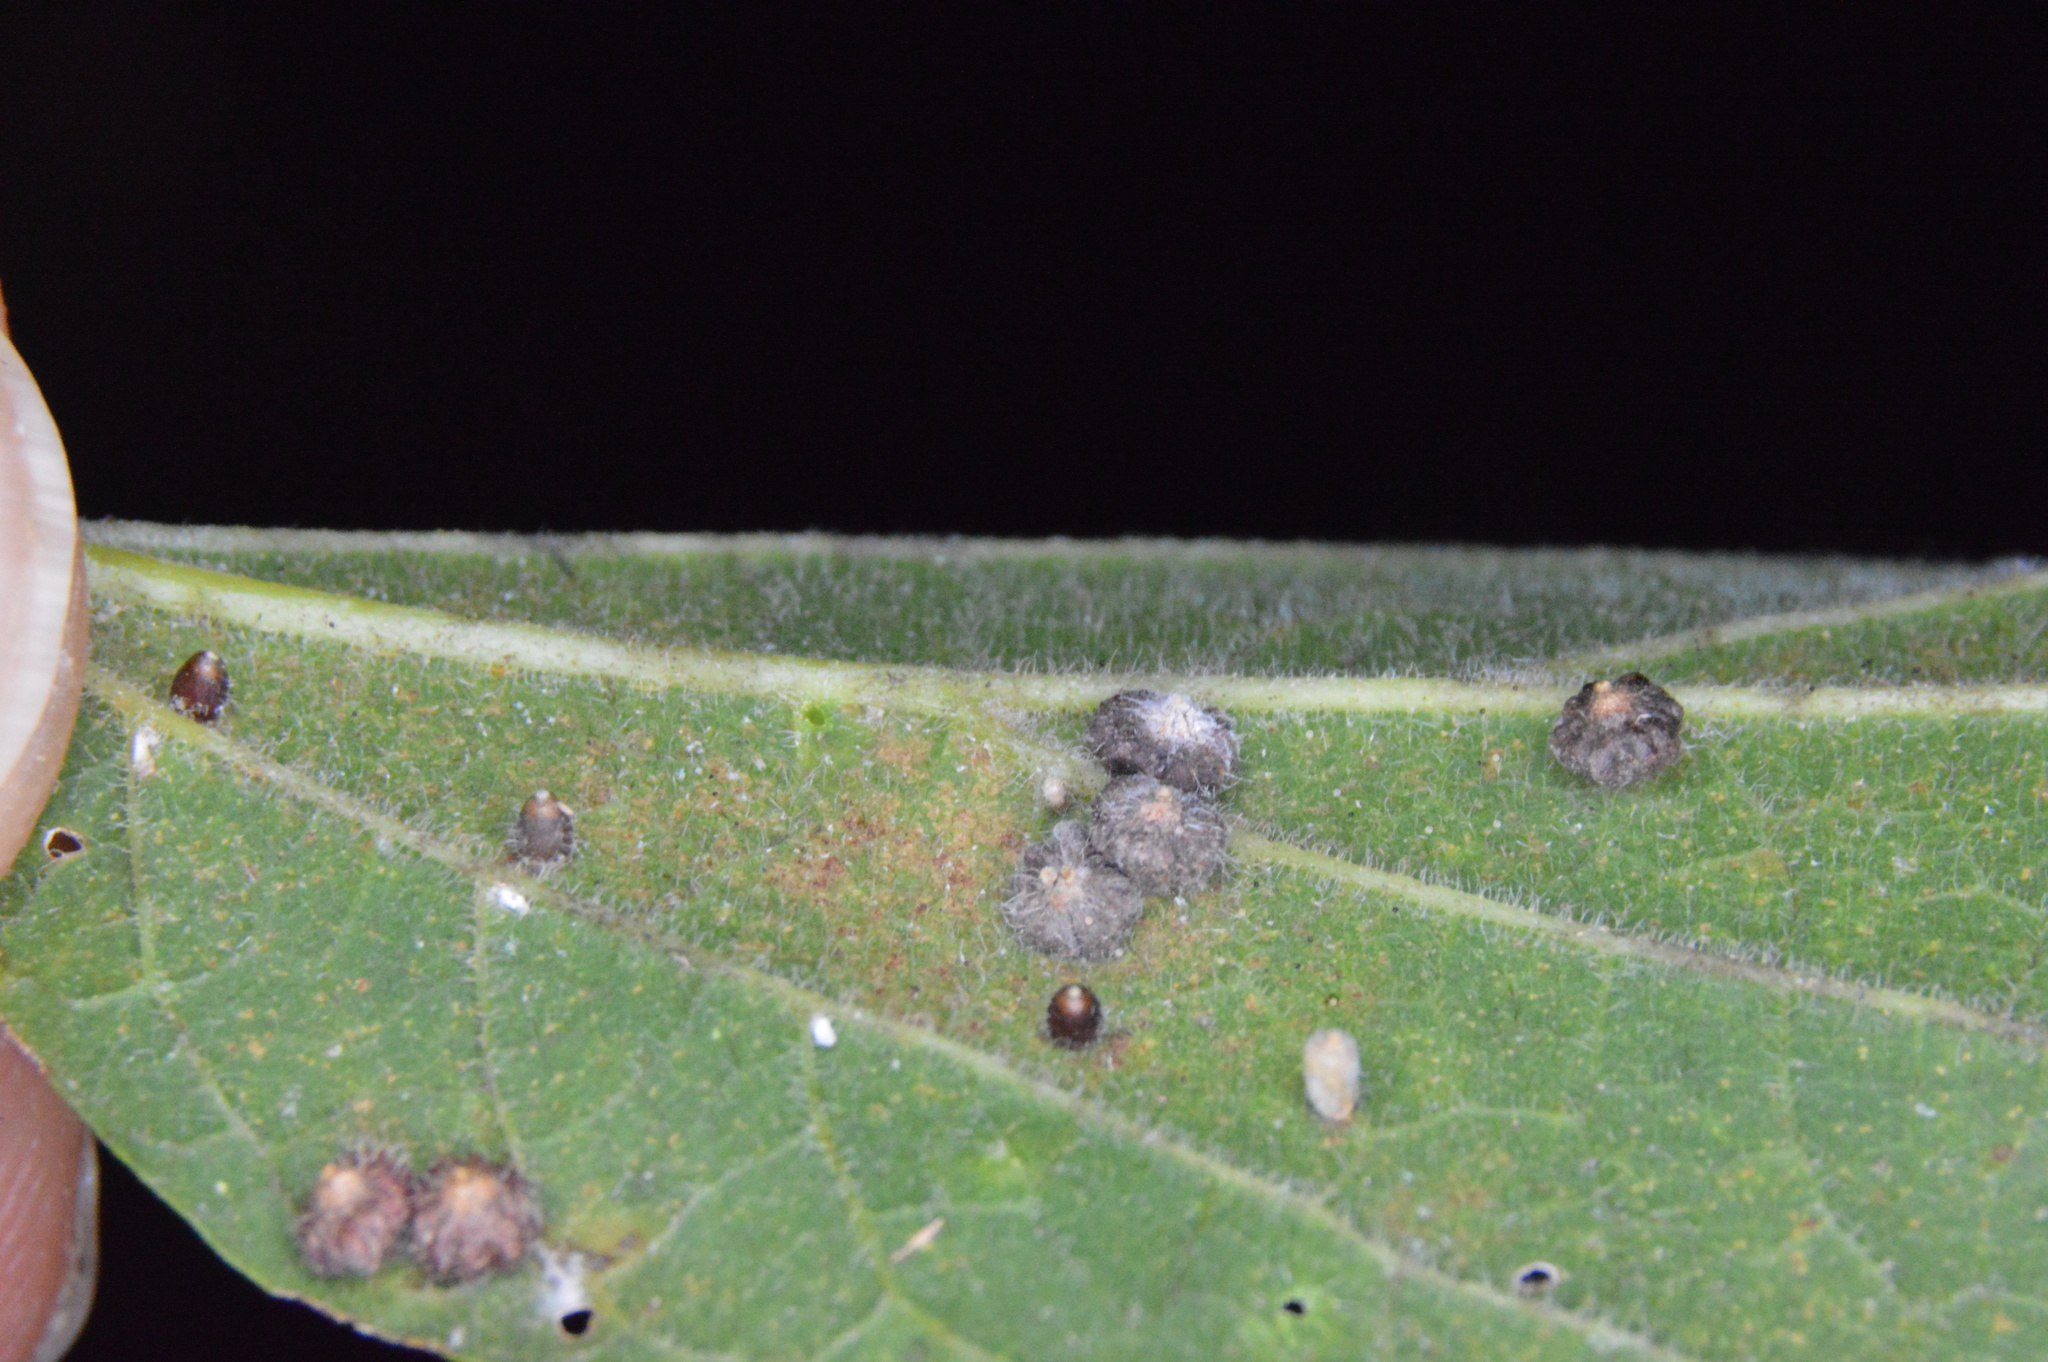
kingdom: Animalia
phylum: Arthropoda
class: Insecta
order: Diptera
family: Cecidomyiidae
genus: Celticecis
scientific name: Celticecis capsularis
